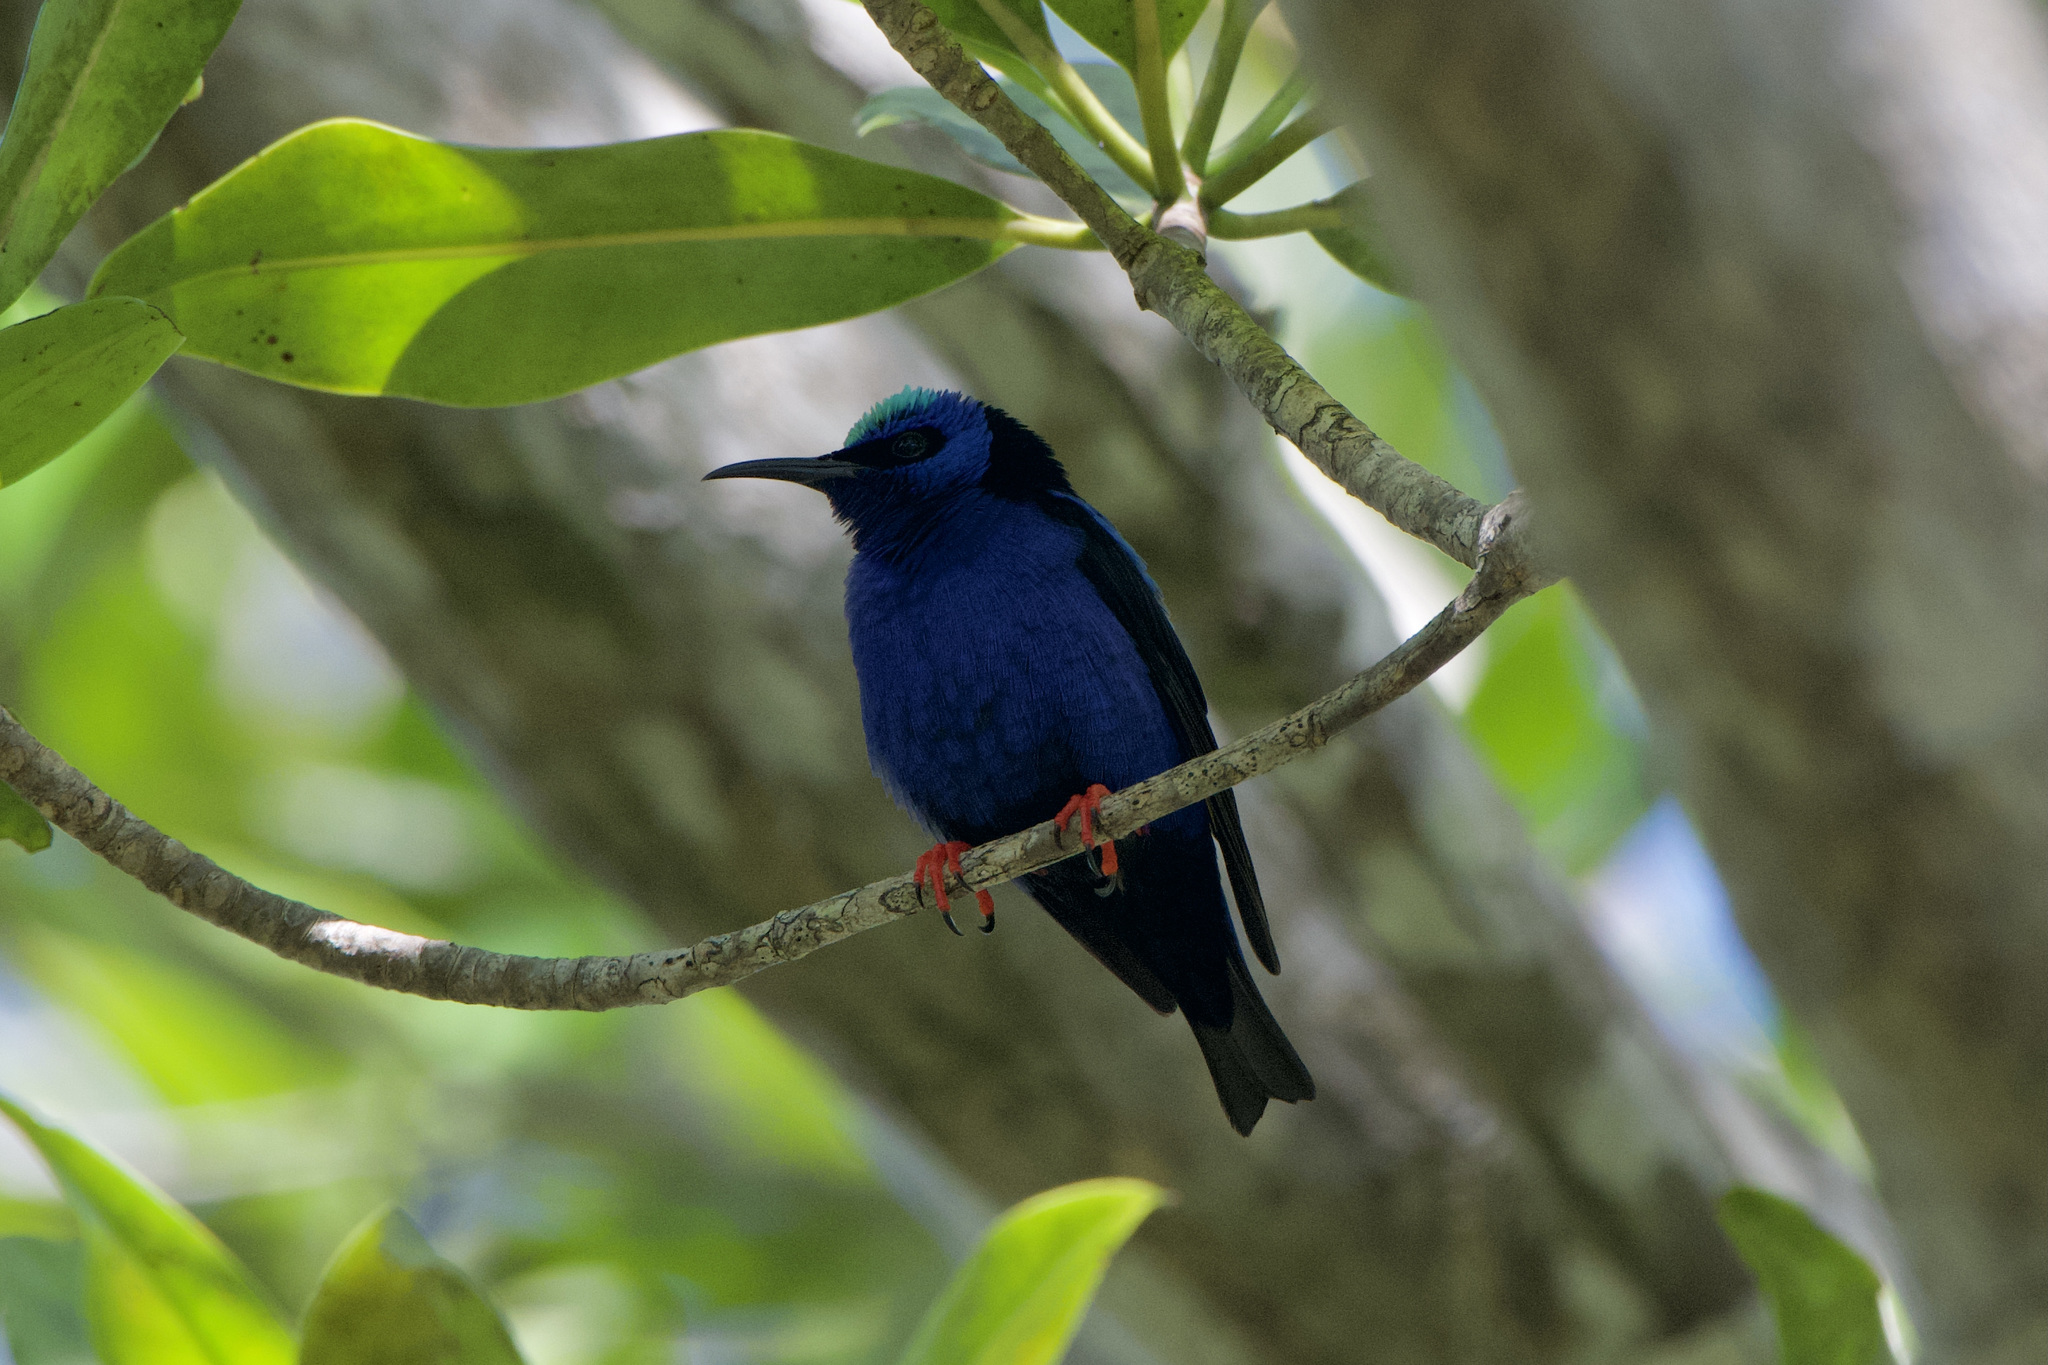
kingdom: Animalia
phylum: Chordata
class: Aves
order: Passeriformes
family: Thraupidae
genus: Cyanerpes
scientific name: Cyanerpes cyaneus
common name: Red-legged honeycreeper
